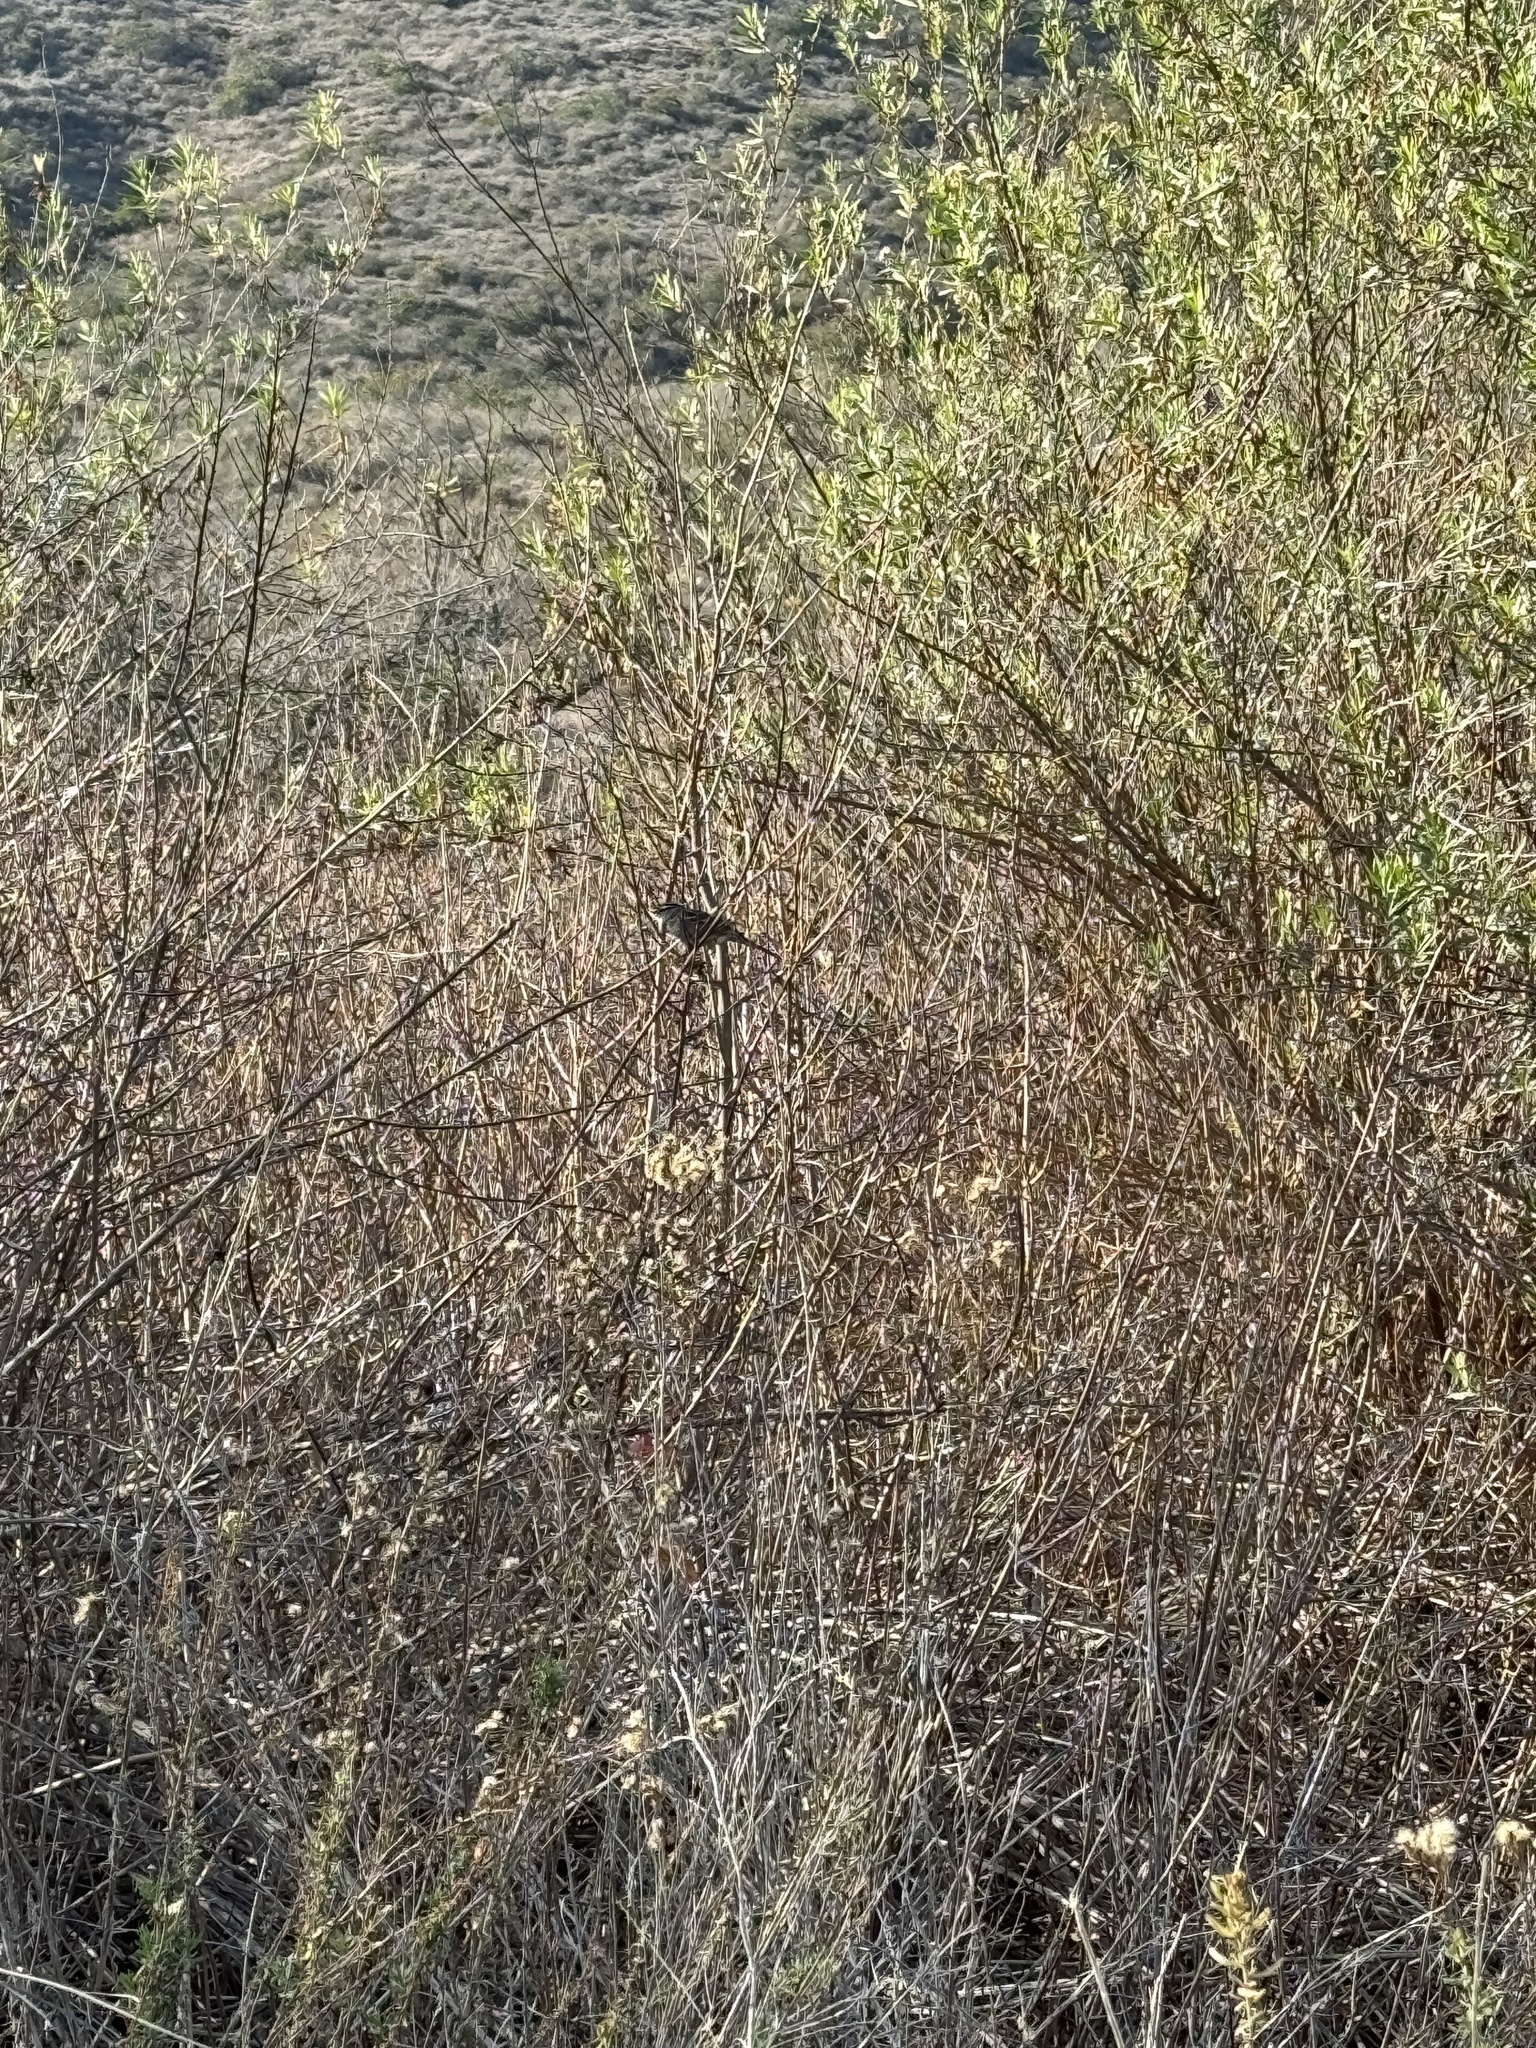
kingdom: Animalia
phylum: Chordata
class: Aves
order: Passeriformes
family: Passerellidae
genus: Zonotrichia
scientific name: Zonotrichia leucophrys
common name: White-crowned sparrow
